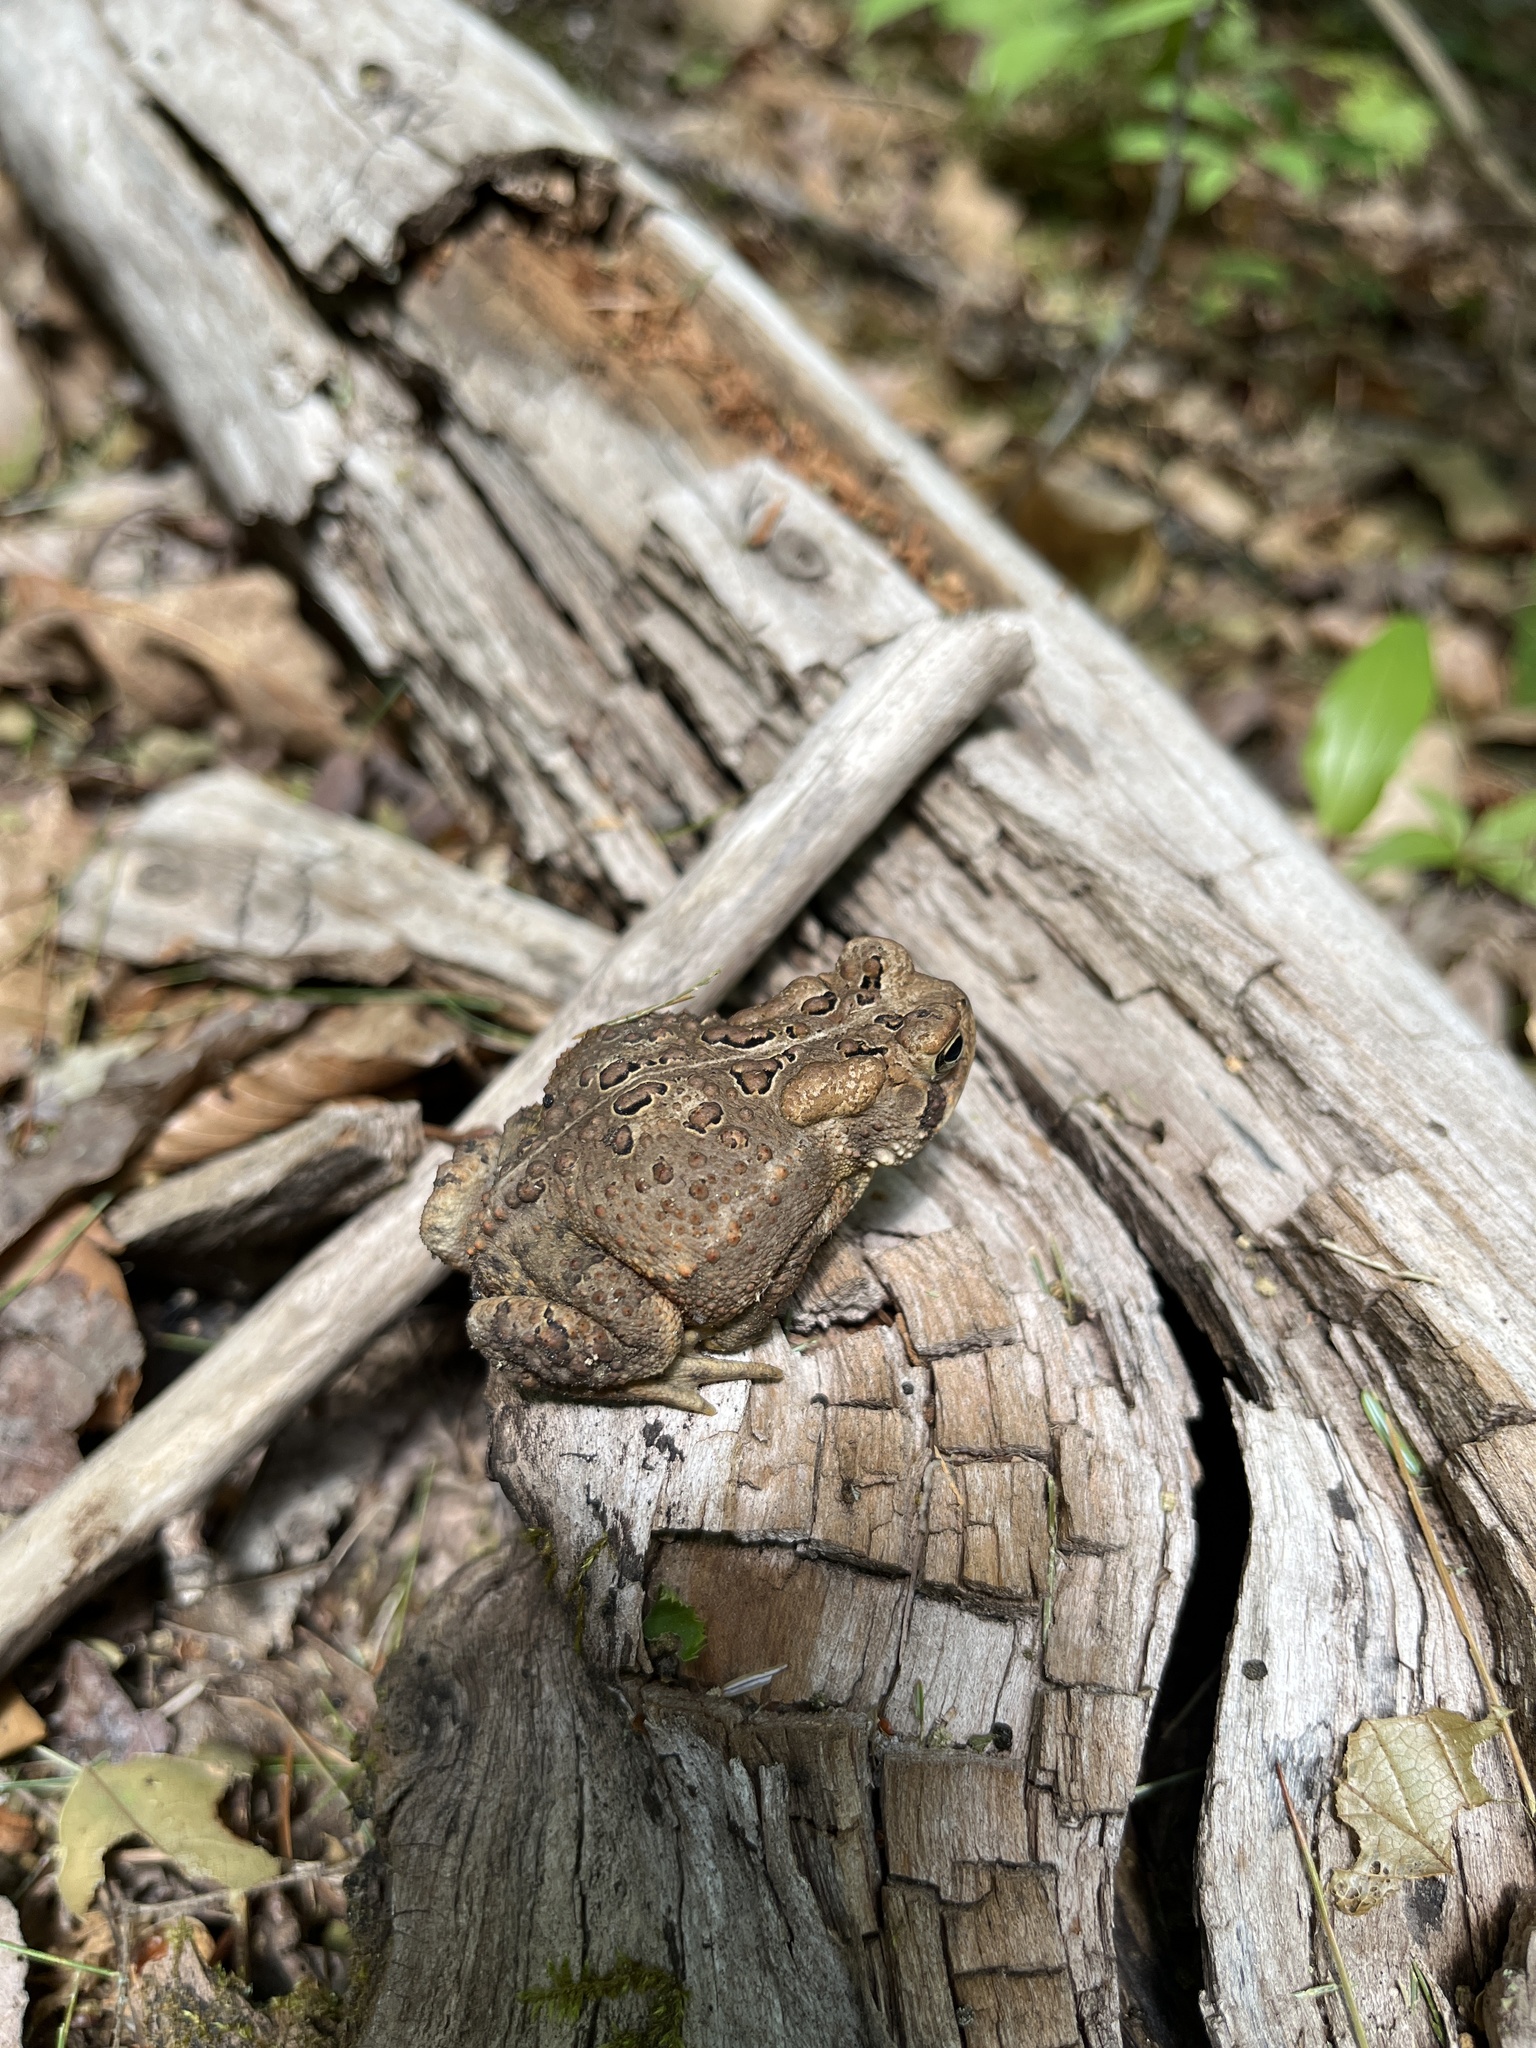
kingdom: Animalia
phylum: Chordata
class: Amphibia
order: Anura
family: Bufonidae
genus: Anaxyrus
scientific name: Anaxyrus americanus
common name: American toad
